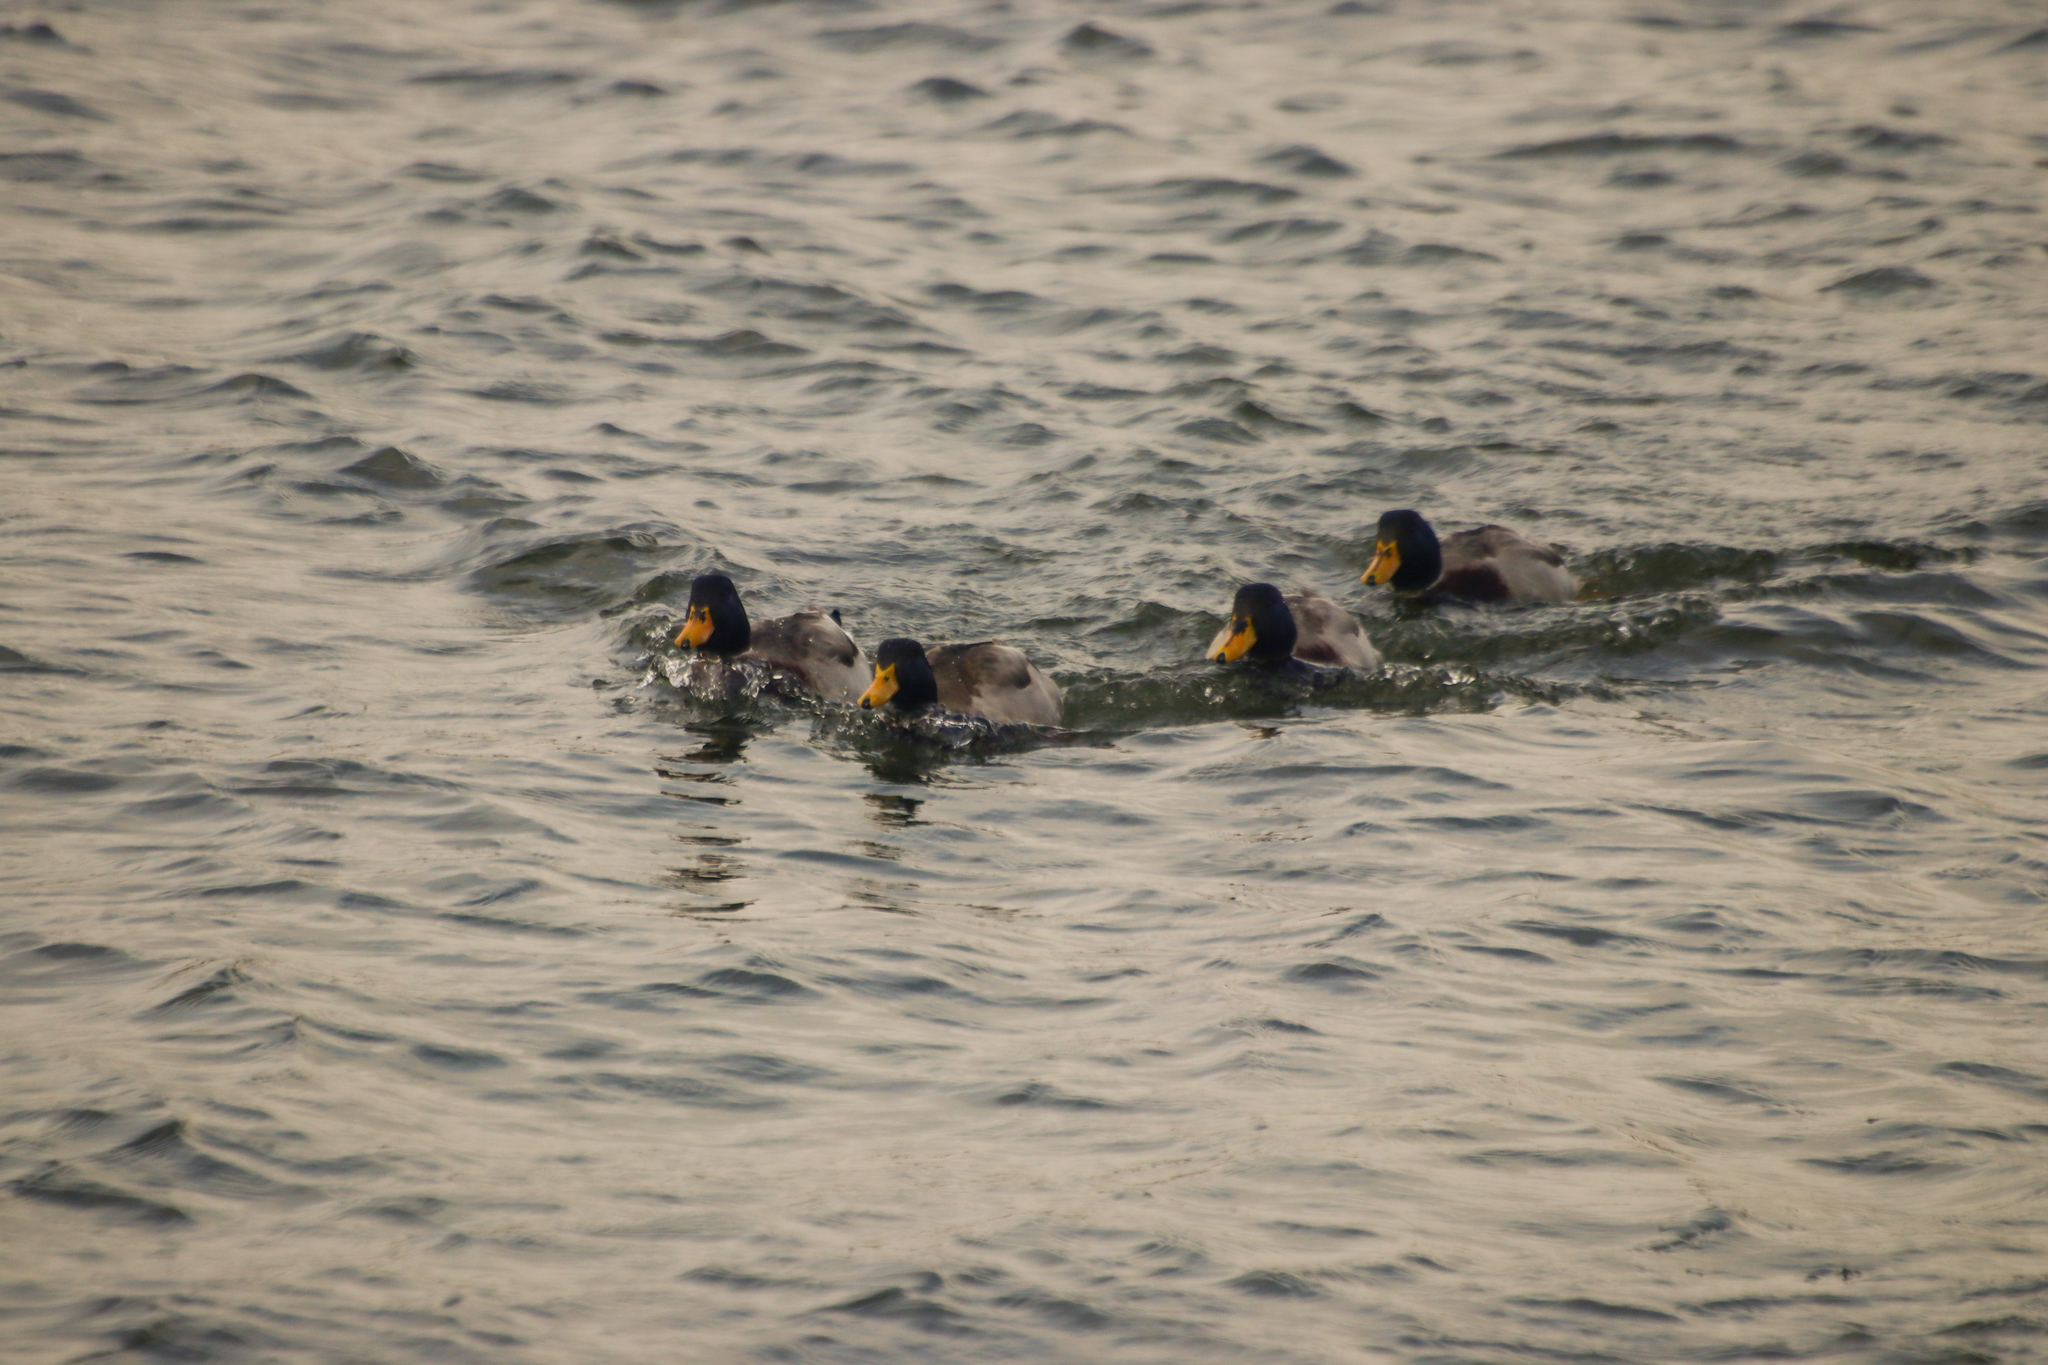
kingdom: Animalia
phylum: Chordata
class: Aves
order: Anseriformes
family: Anatidae
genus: Anas
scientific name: Anas platyrhynchos
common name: Mallard
